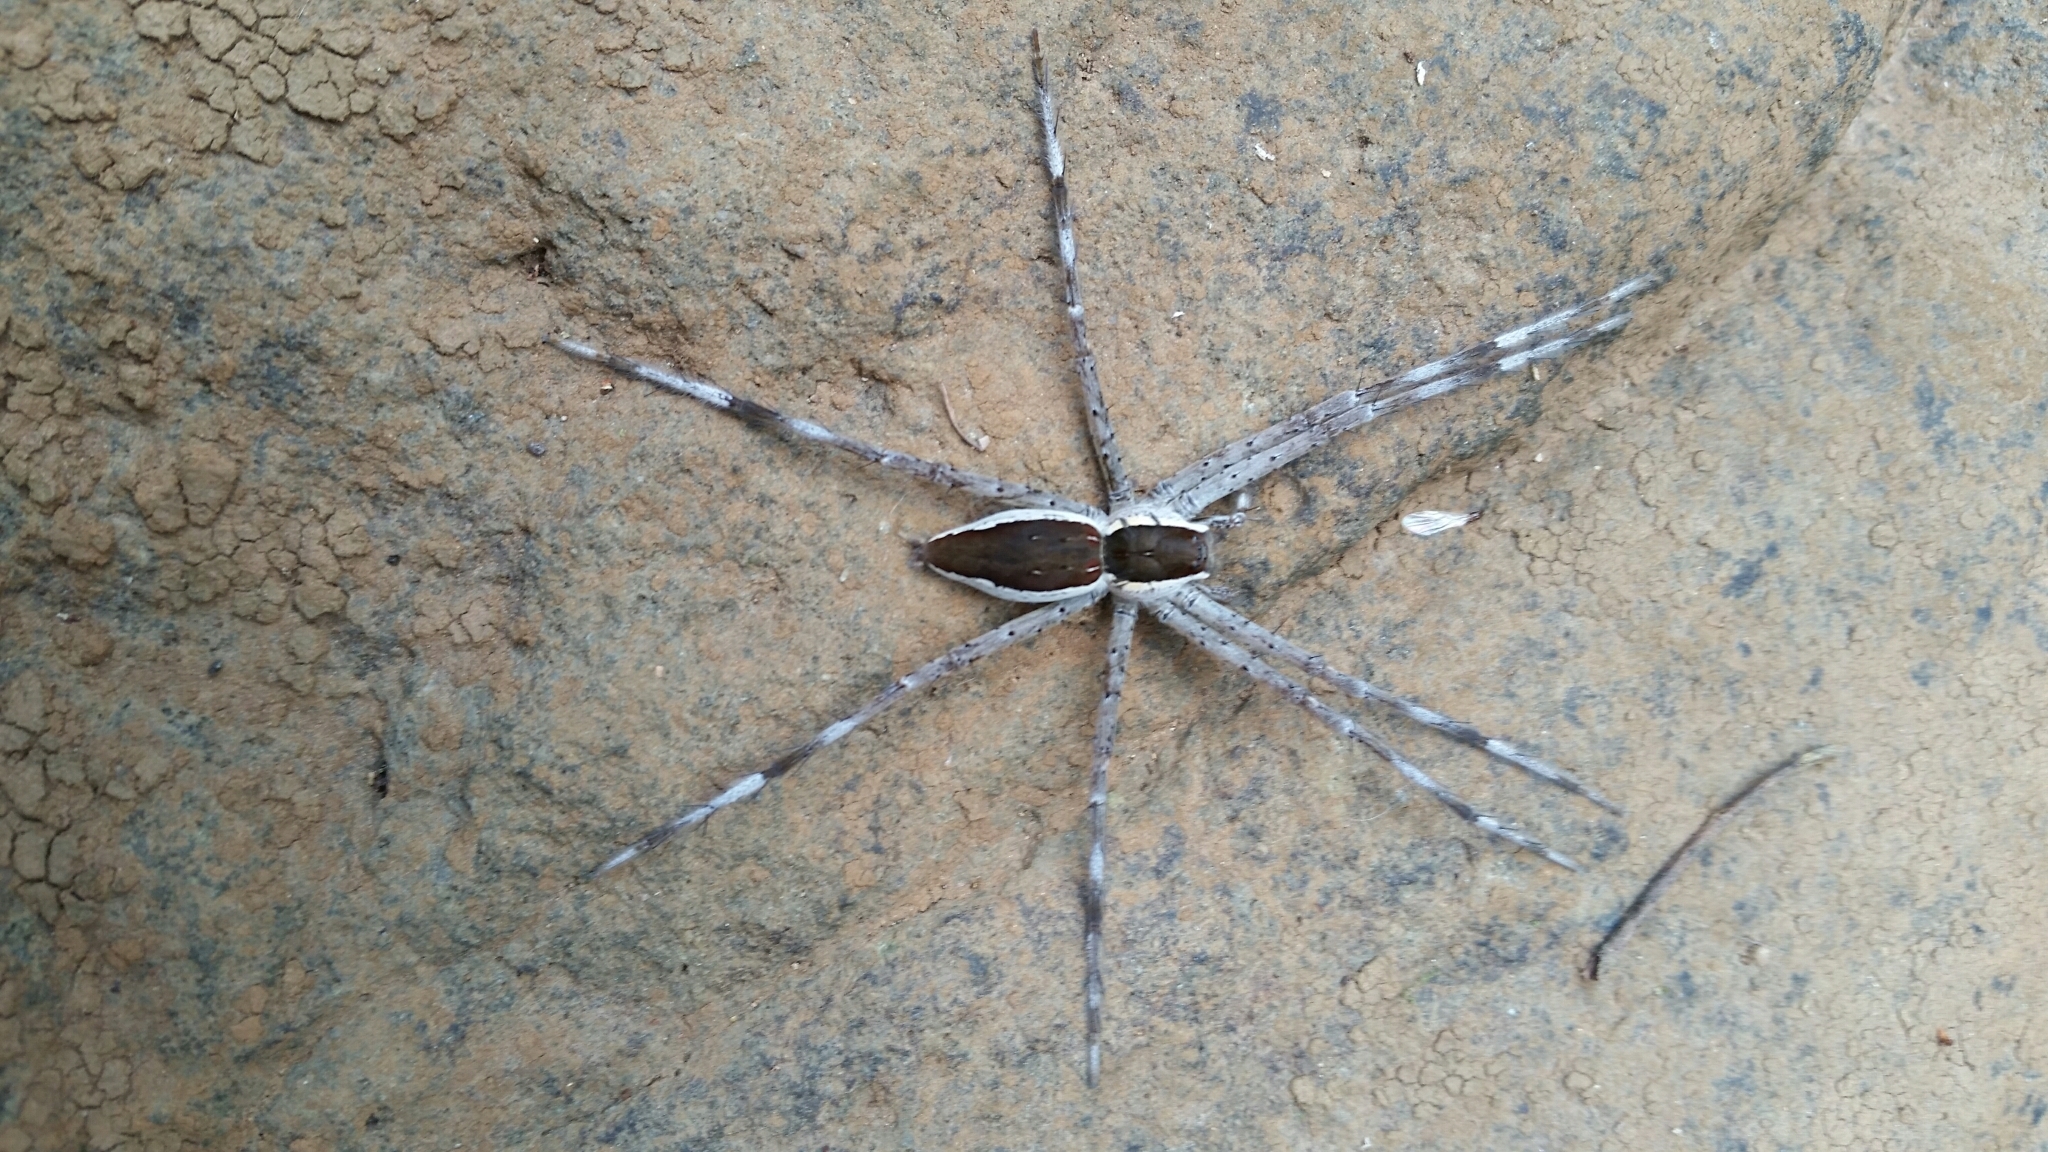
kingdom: Animalia
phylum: Arthropoda
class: Arachnida
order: Araneae
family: Pisauridae
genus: Nilus
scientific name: Nilus albocinctus
